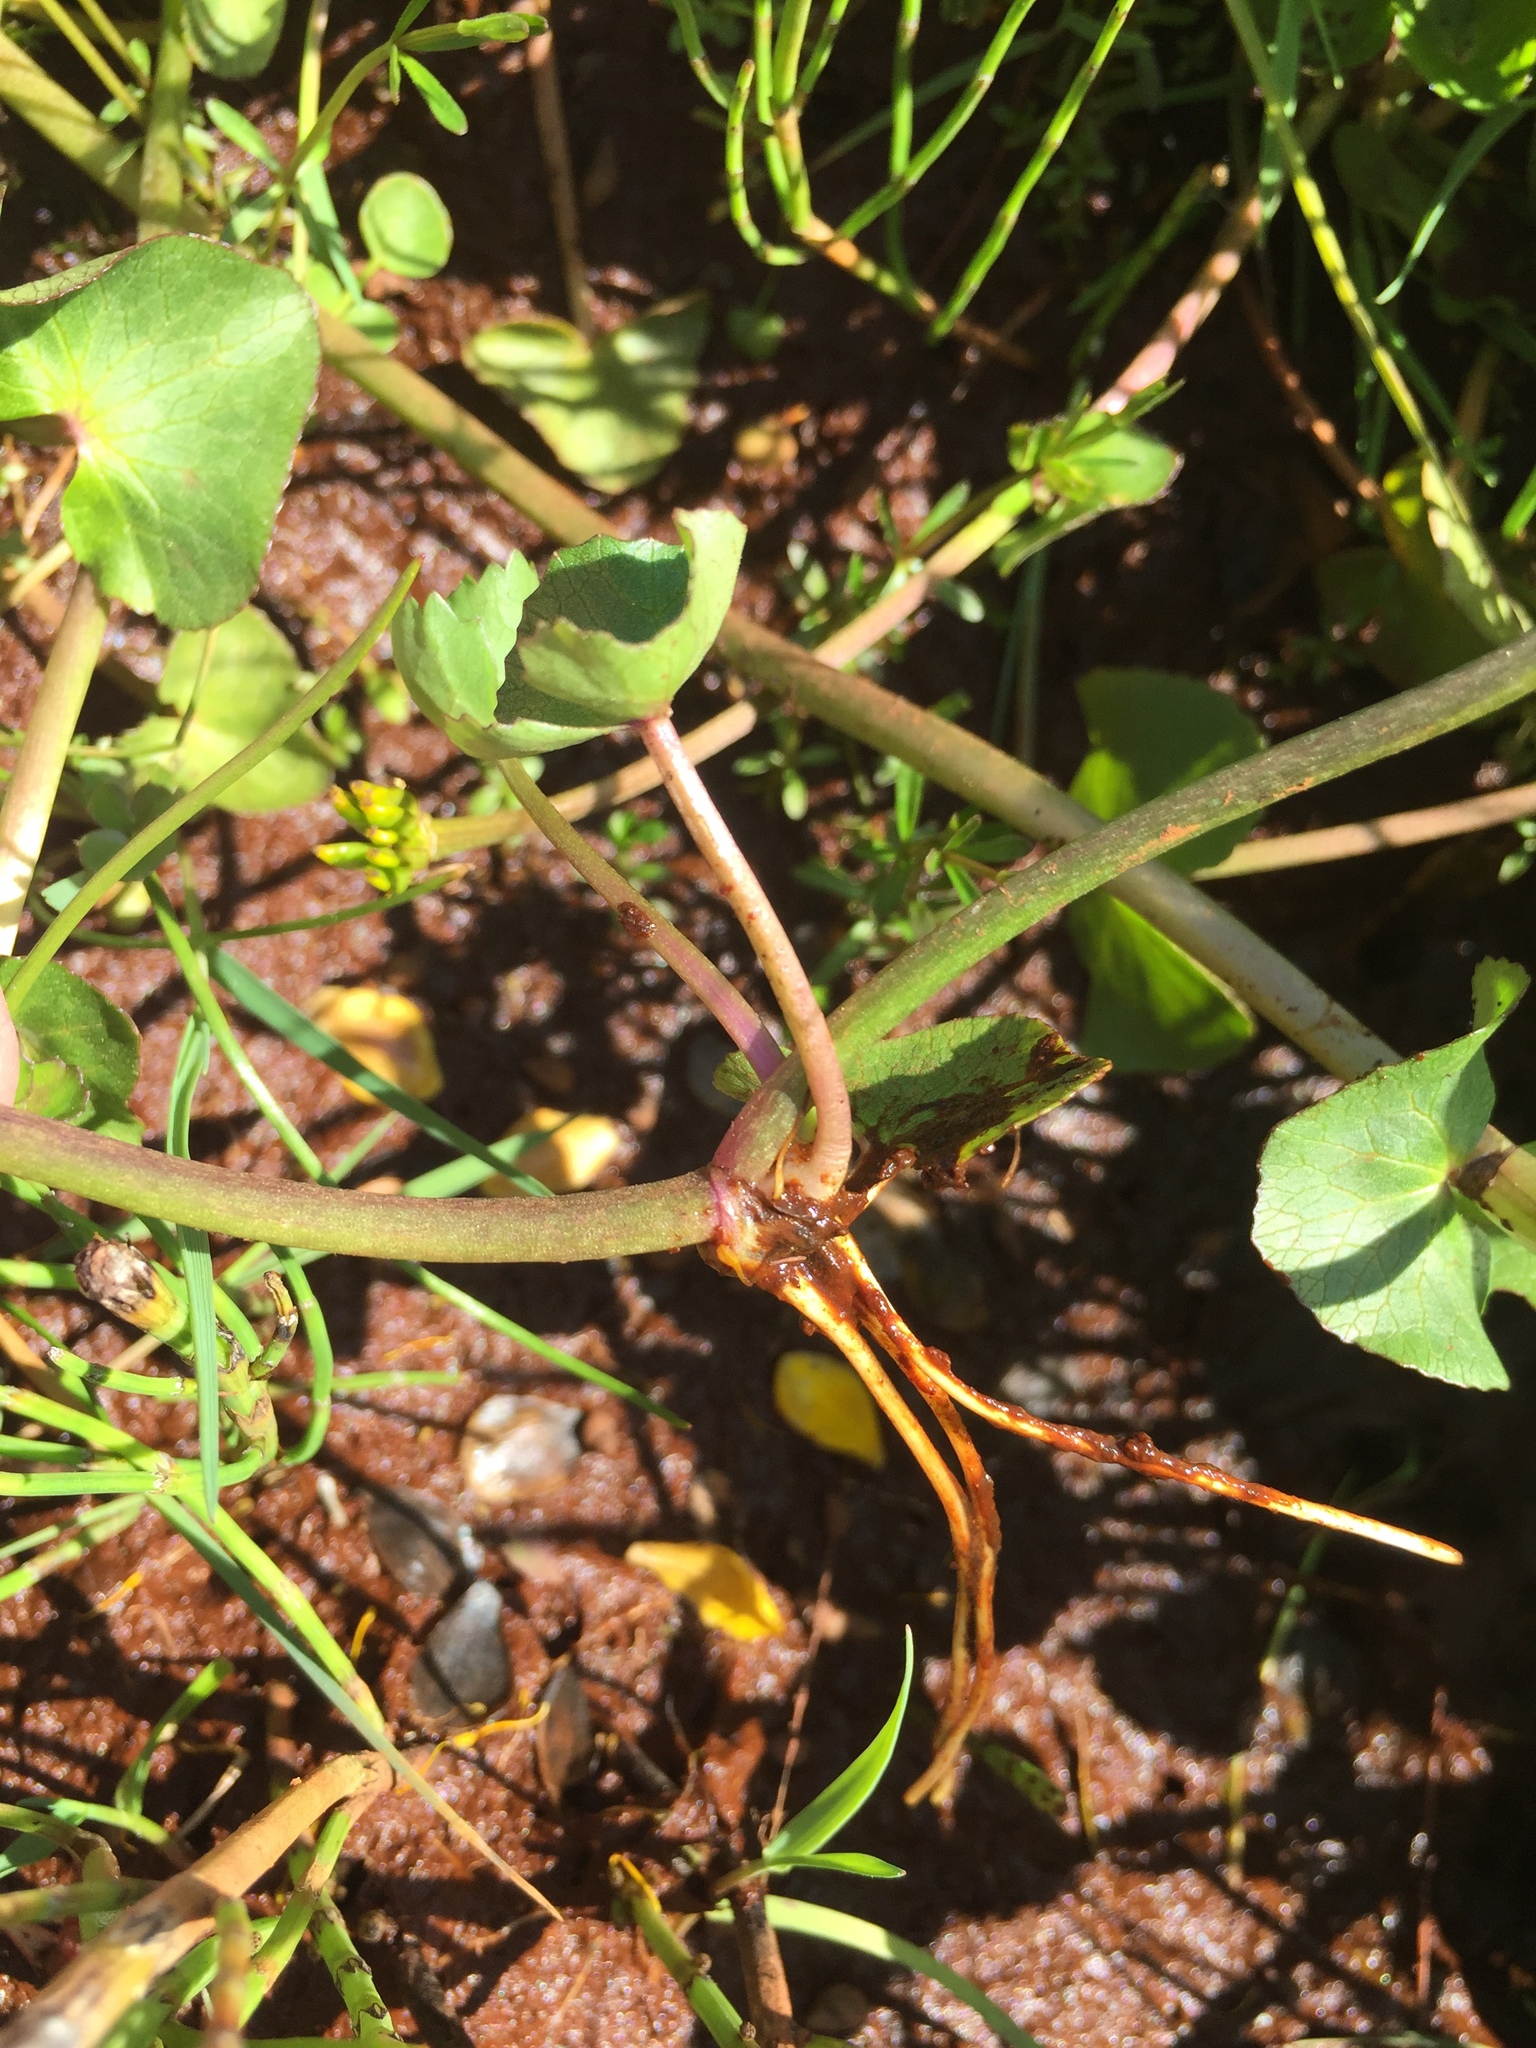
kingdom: Plantae
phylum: Tracheophyta
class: Magnoliopsida
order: Ranunculales
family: Ranunculaceae
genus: Caltha
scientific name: Caltha palustris
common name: Marsh marigold
